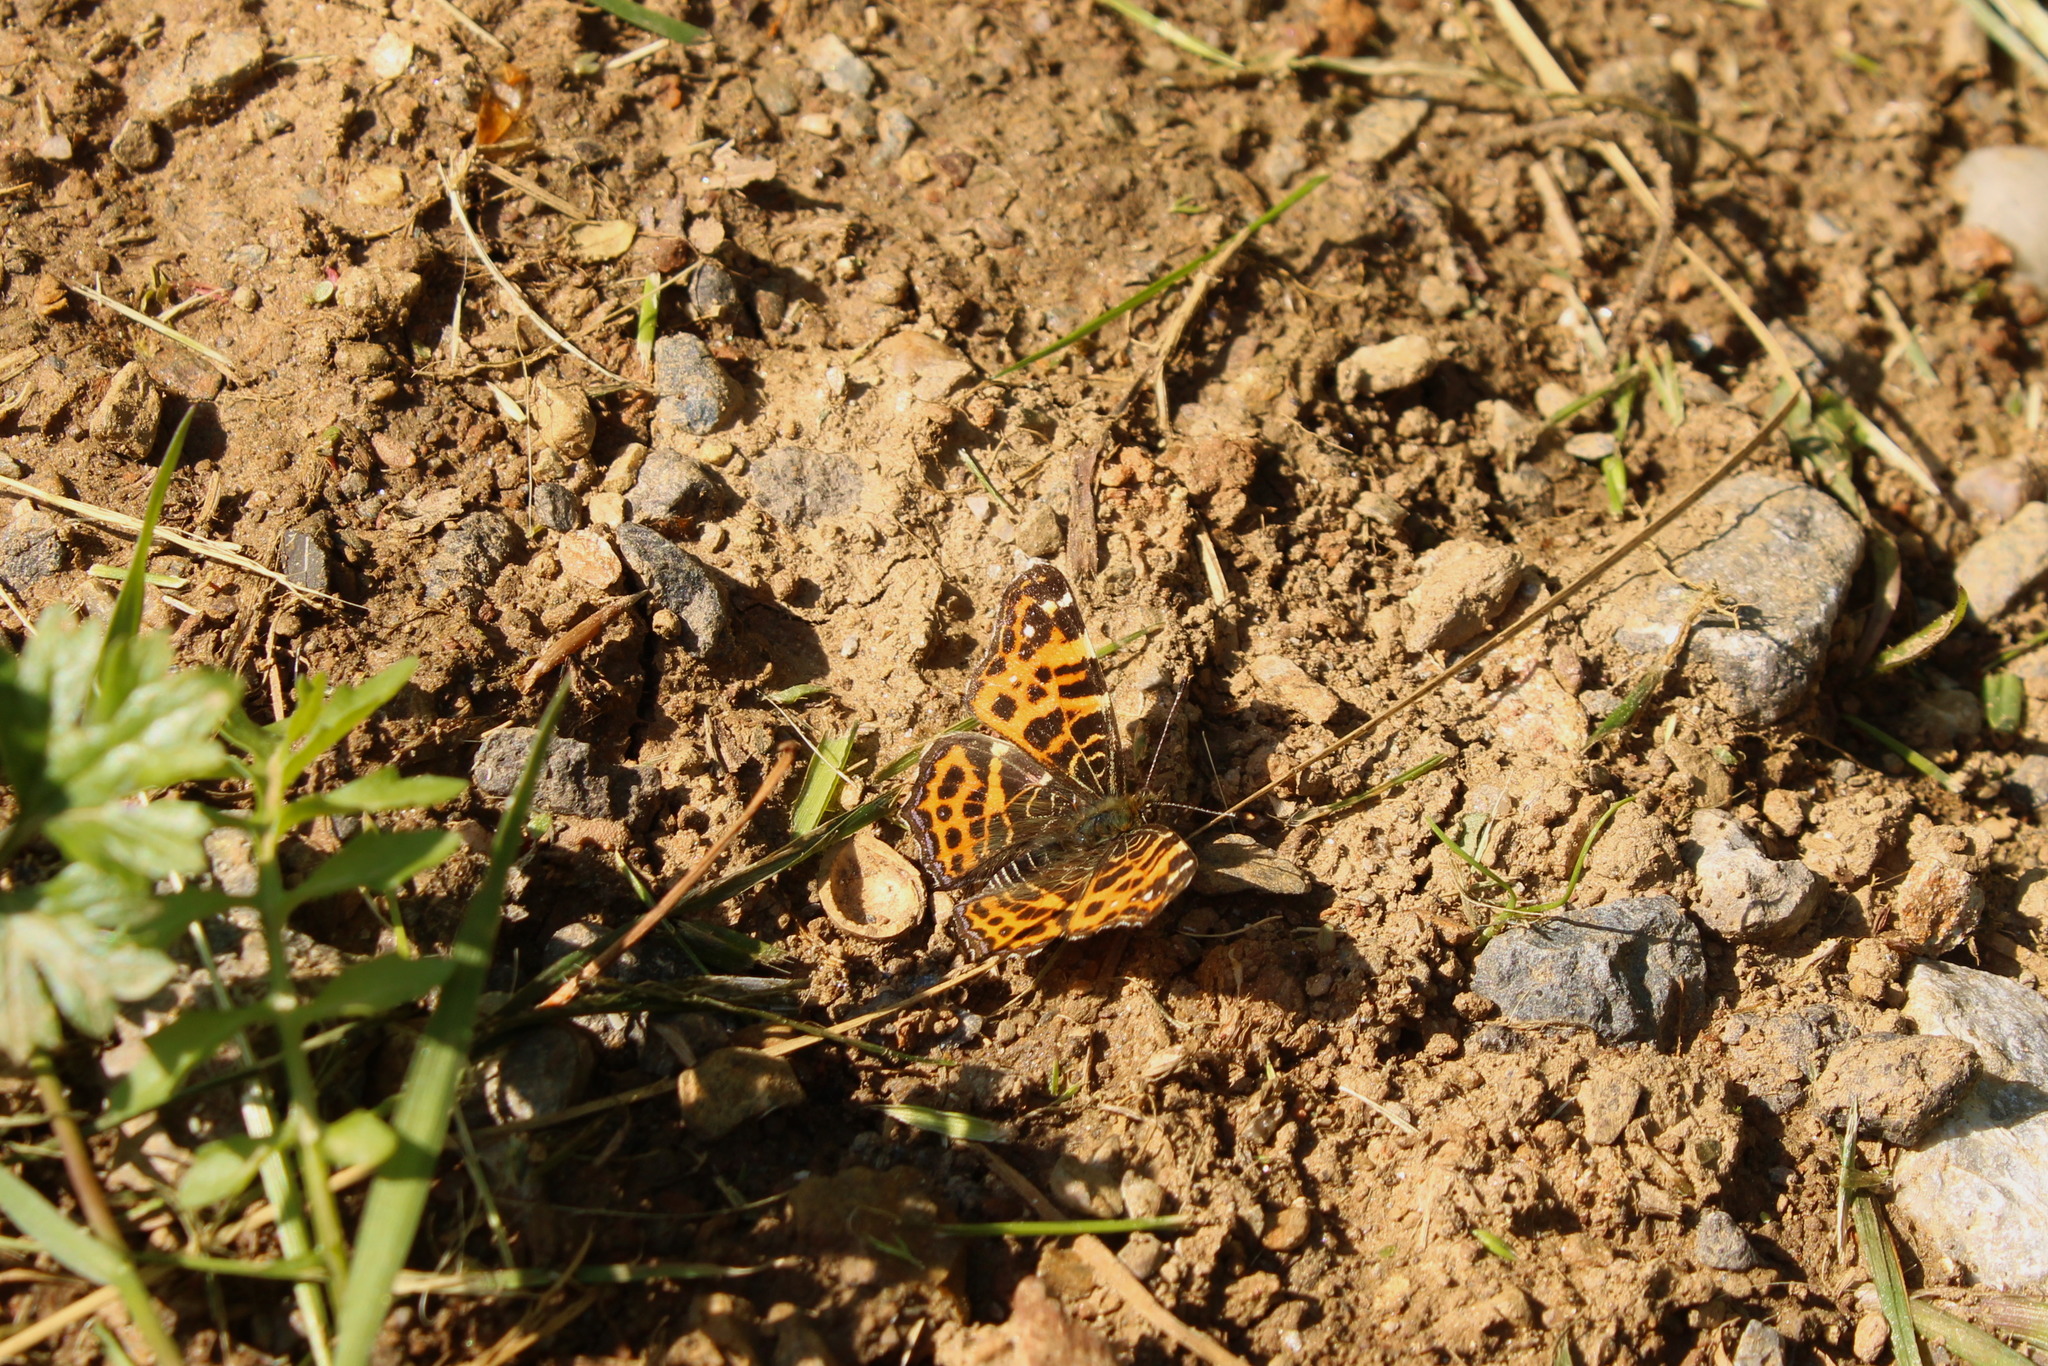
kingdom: Animalia
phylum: Arthropoda
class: Insecta
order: Lepidoptera
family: Nymphalidae
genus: Araschnia
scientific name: Araschnia levana
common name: Map butterfly
